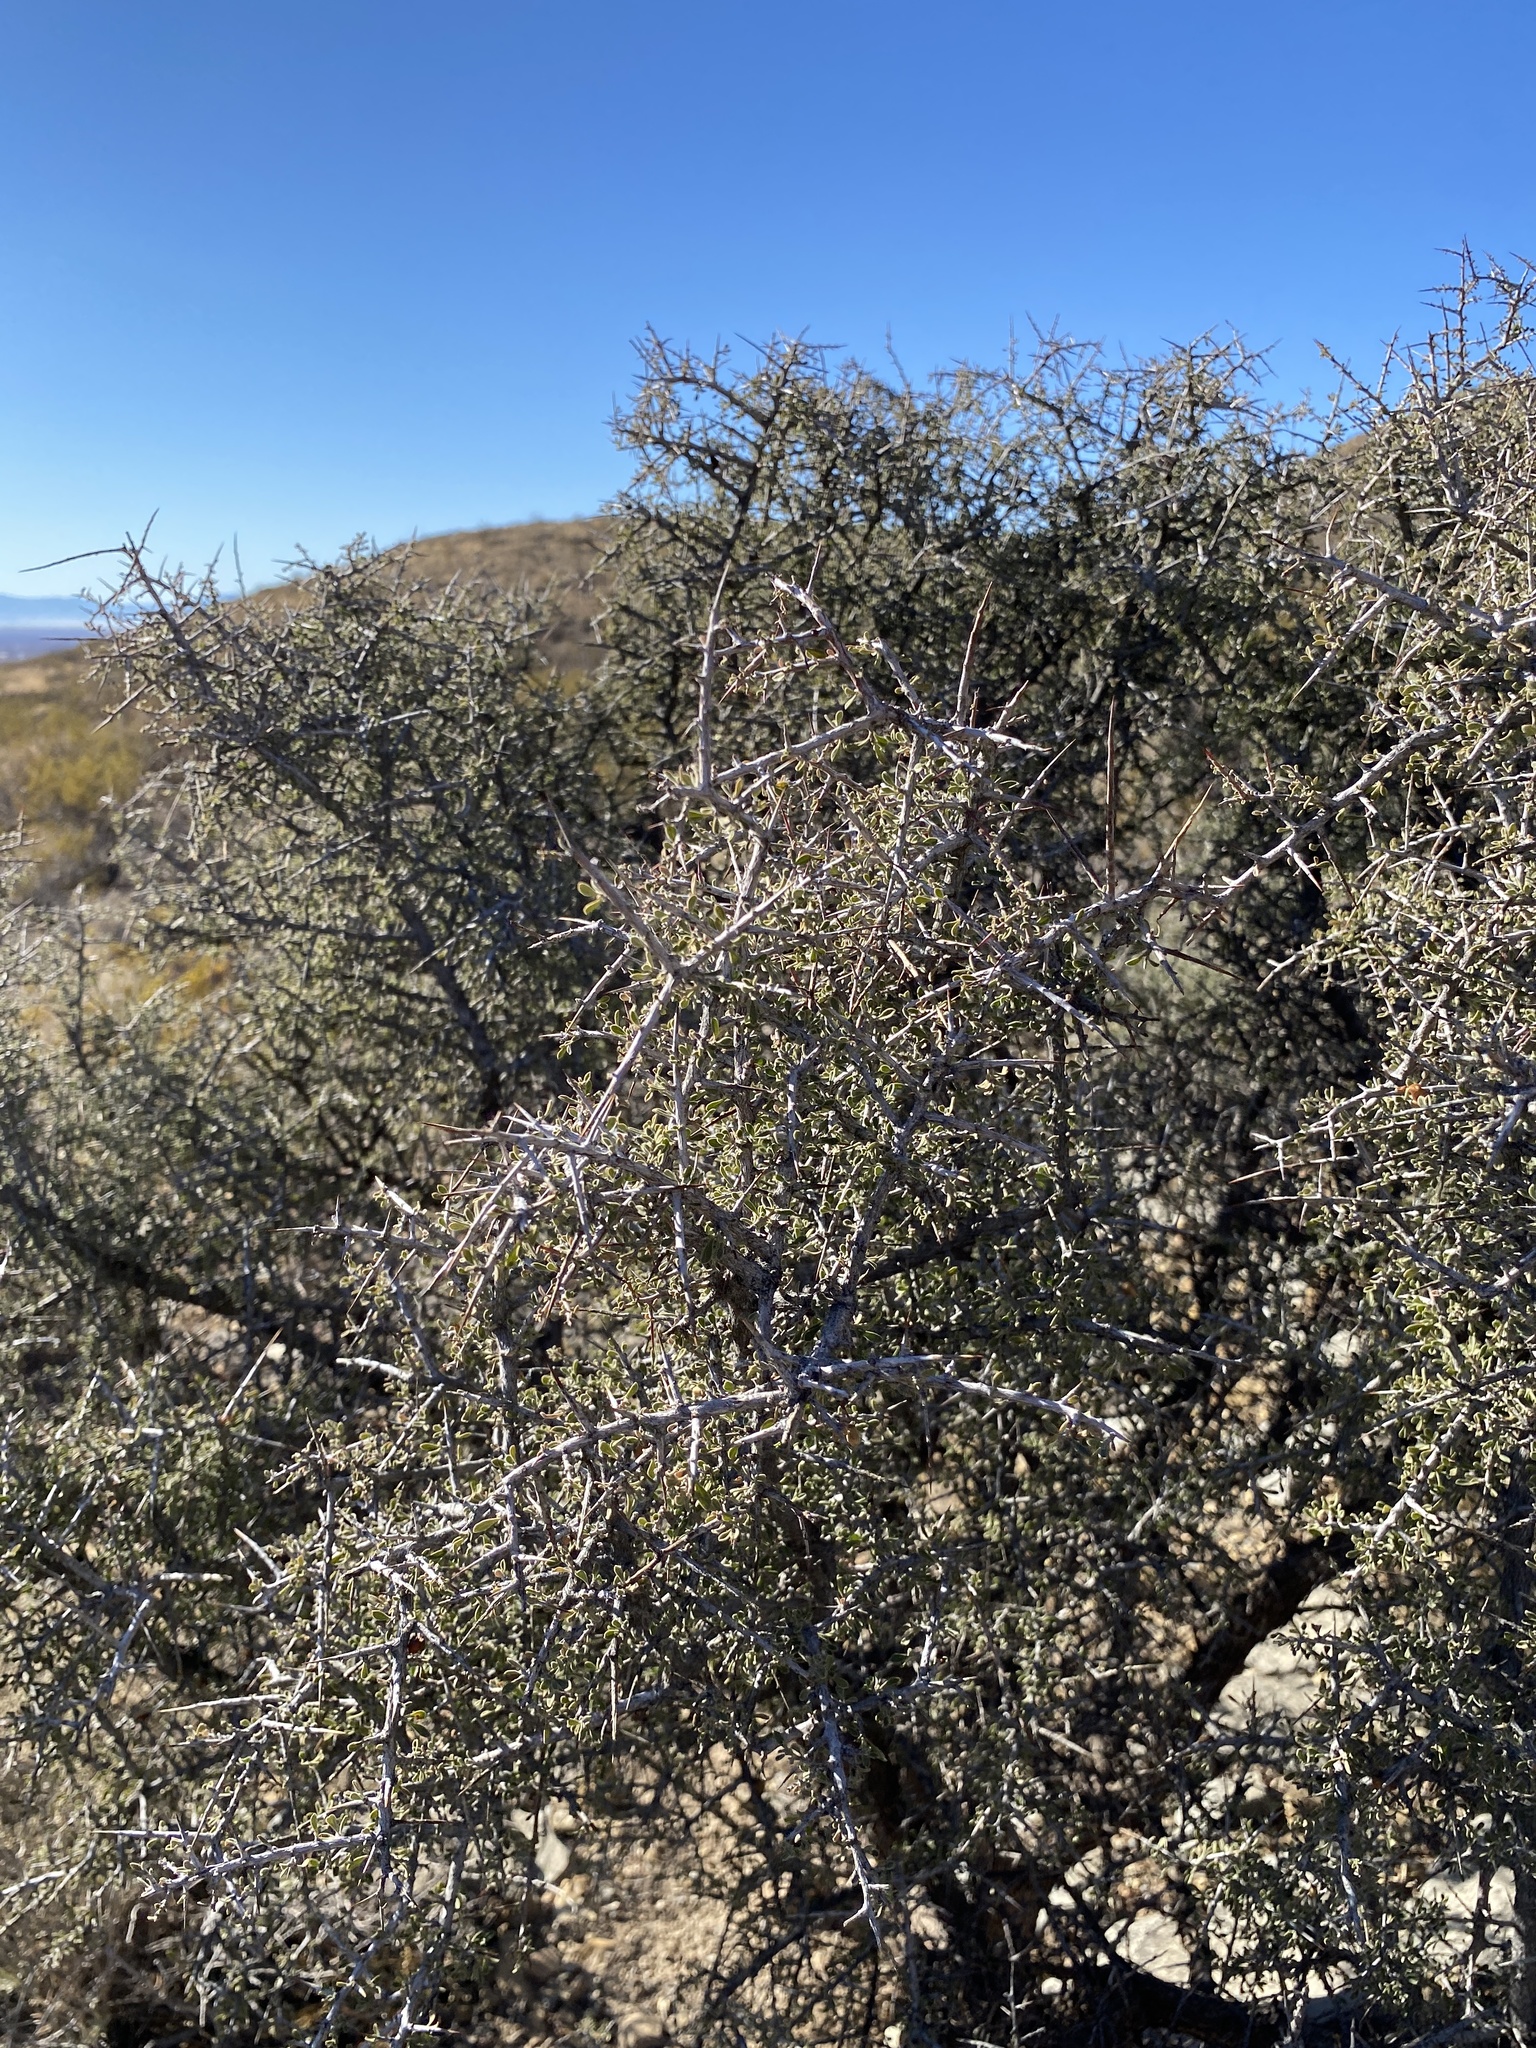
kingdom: Plantae
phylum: Tracheophyta
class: Magnoliopsida
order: Rosales
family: Rhamnaceae
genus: Condalia
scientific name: Condalia warnockii
